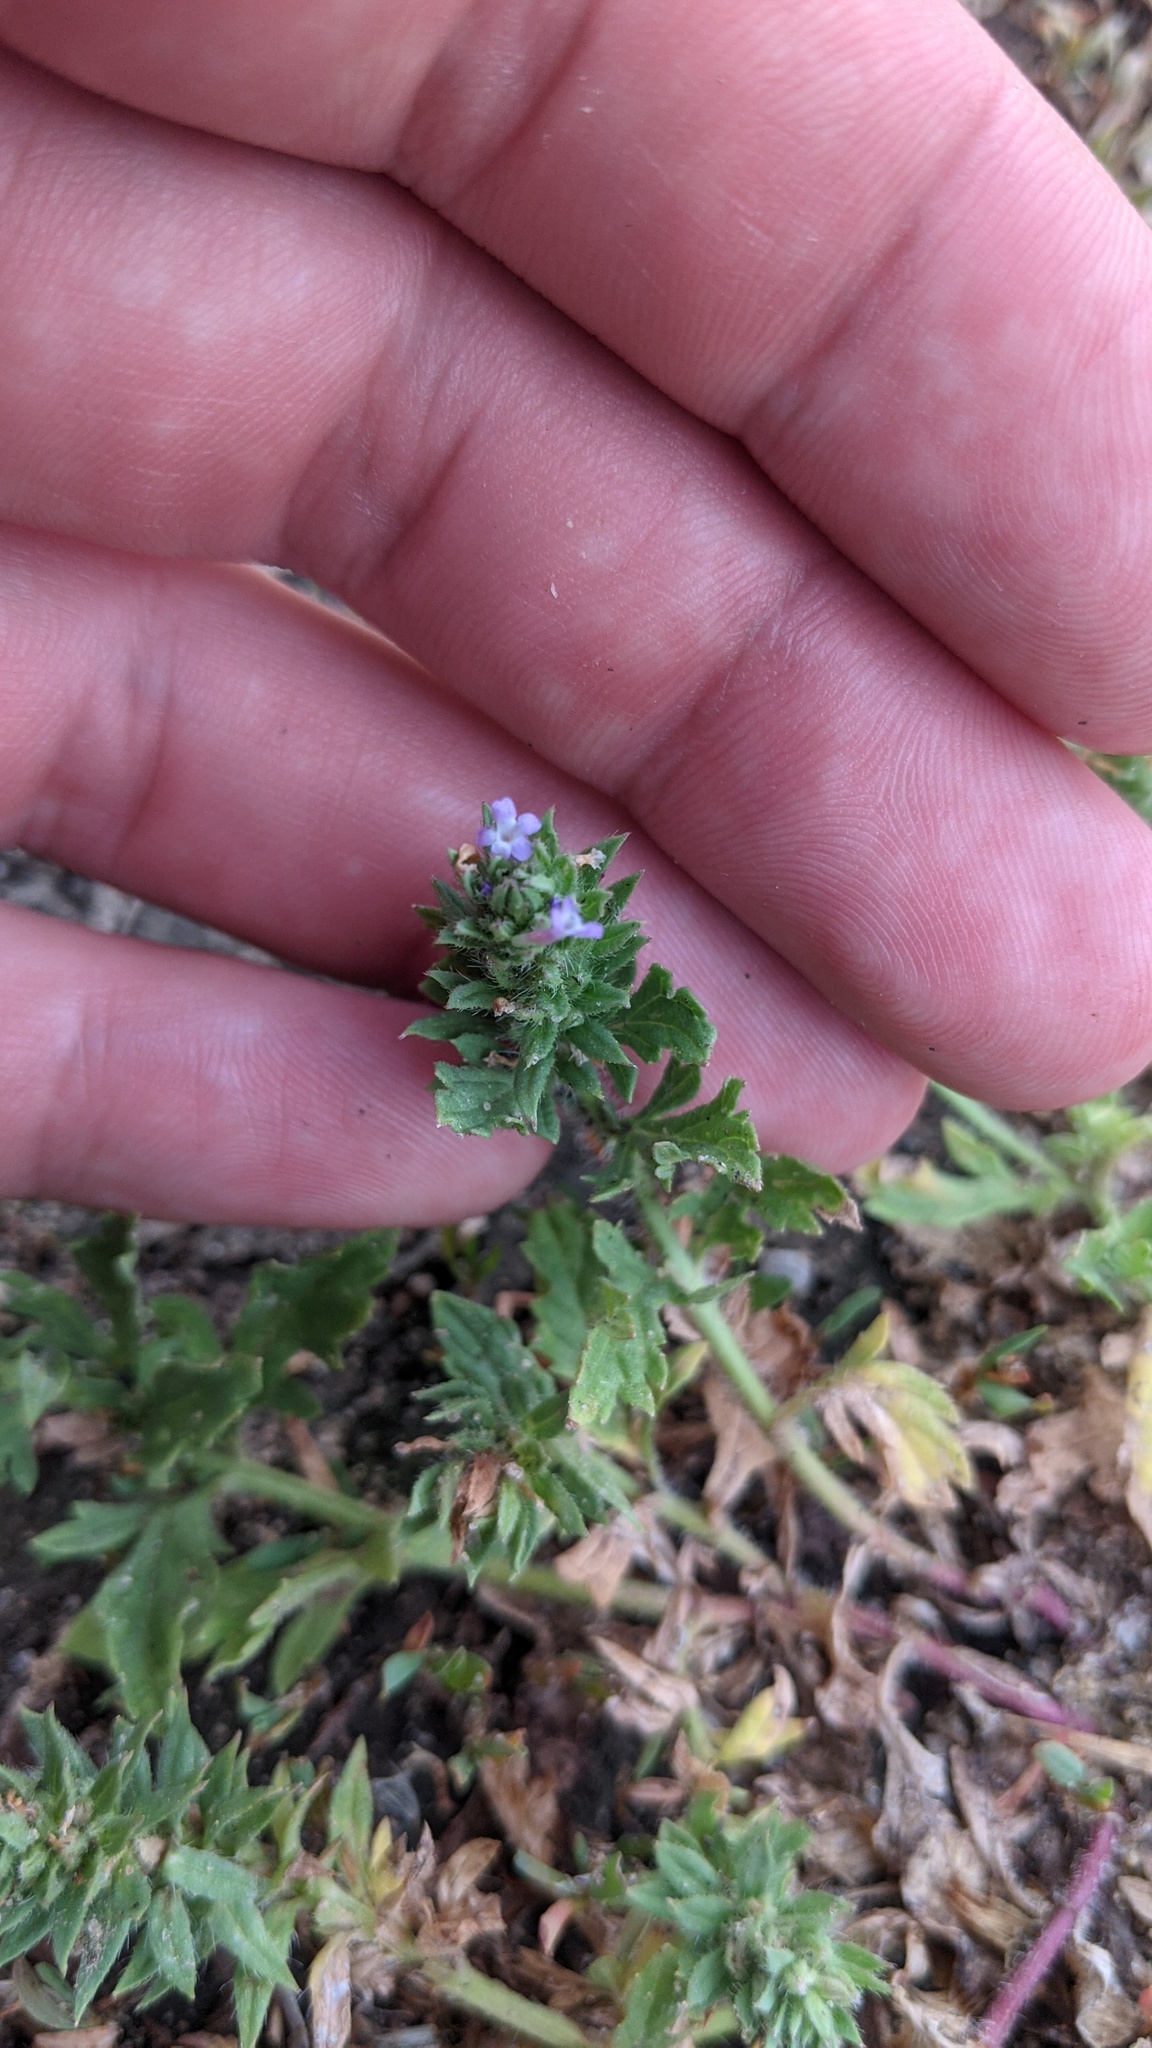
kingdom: Plantae
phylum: Tracheophyta
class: Magnoliopsida
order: Lamiales
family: Verbenaceae
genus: Verbena
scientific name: Verbena bracteata
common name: Bracted vervain
